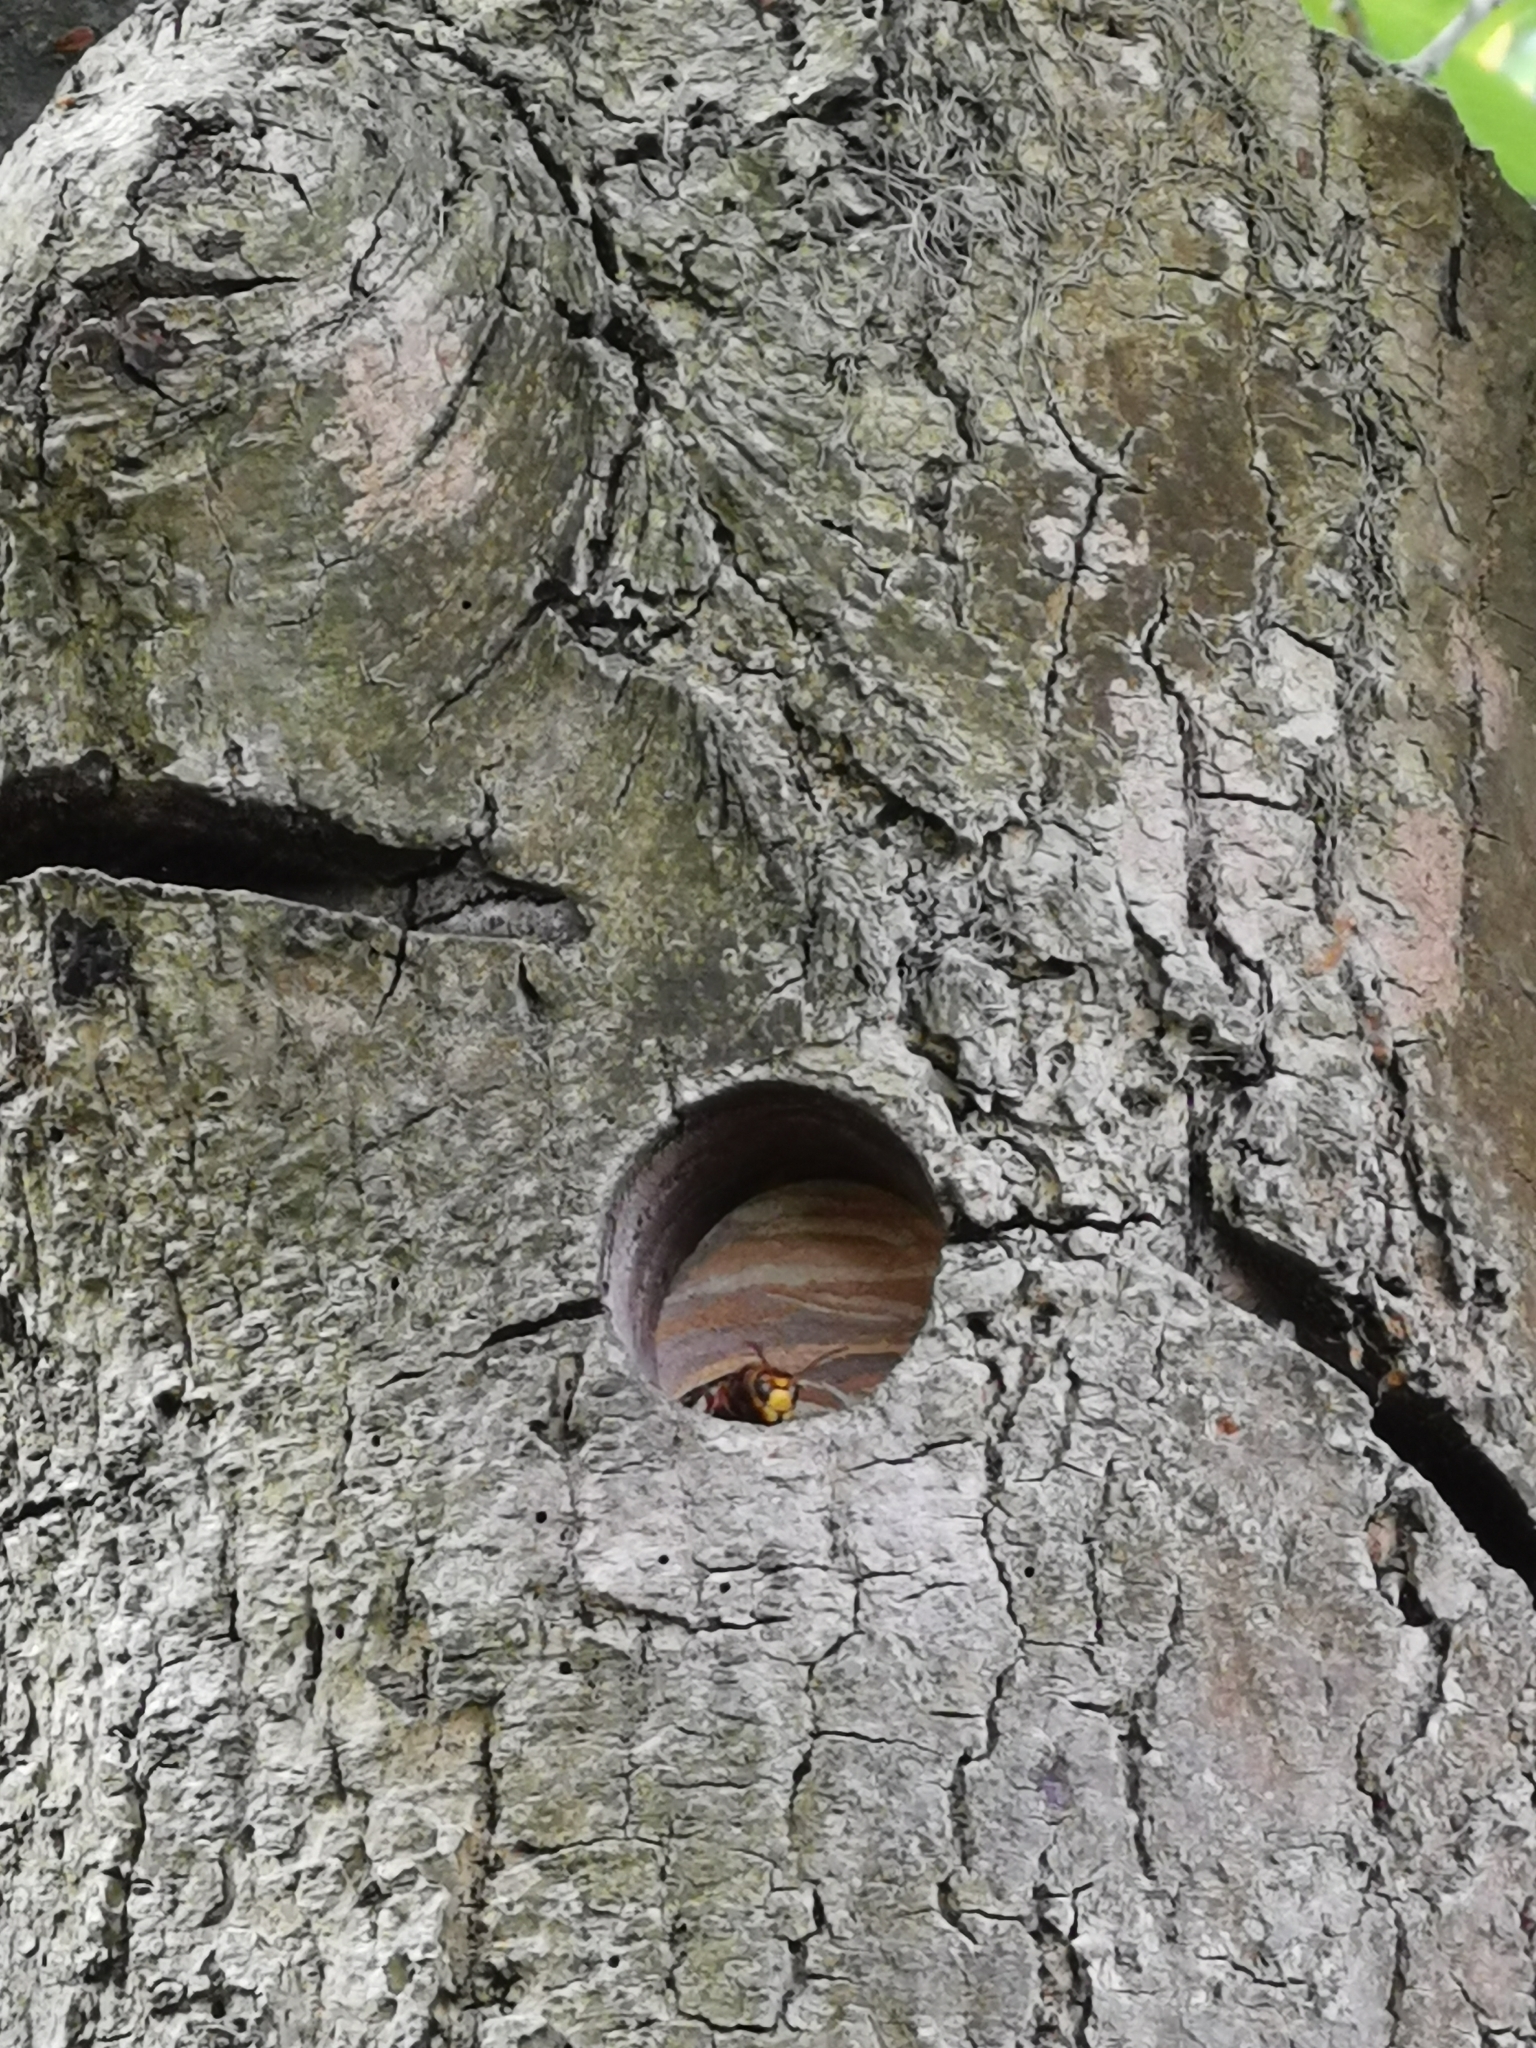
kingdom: Animalia
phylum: Arthropoda
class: Insecta
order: Hymenoptera
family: Vespidae
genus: Vespa
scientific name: Vespa crabro
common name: Hornet
